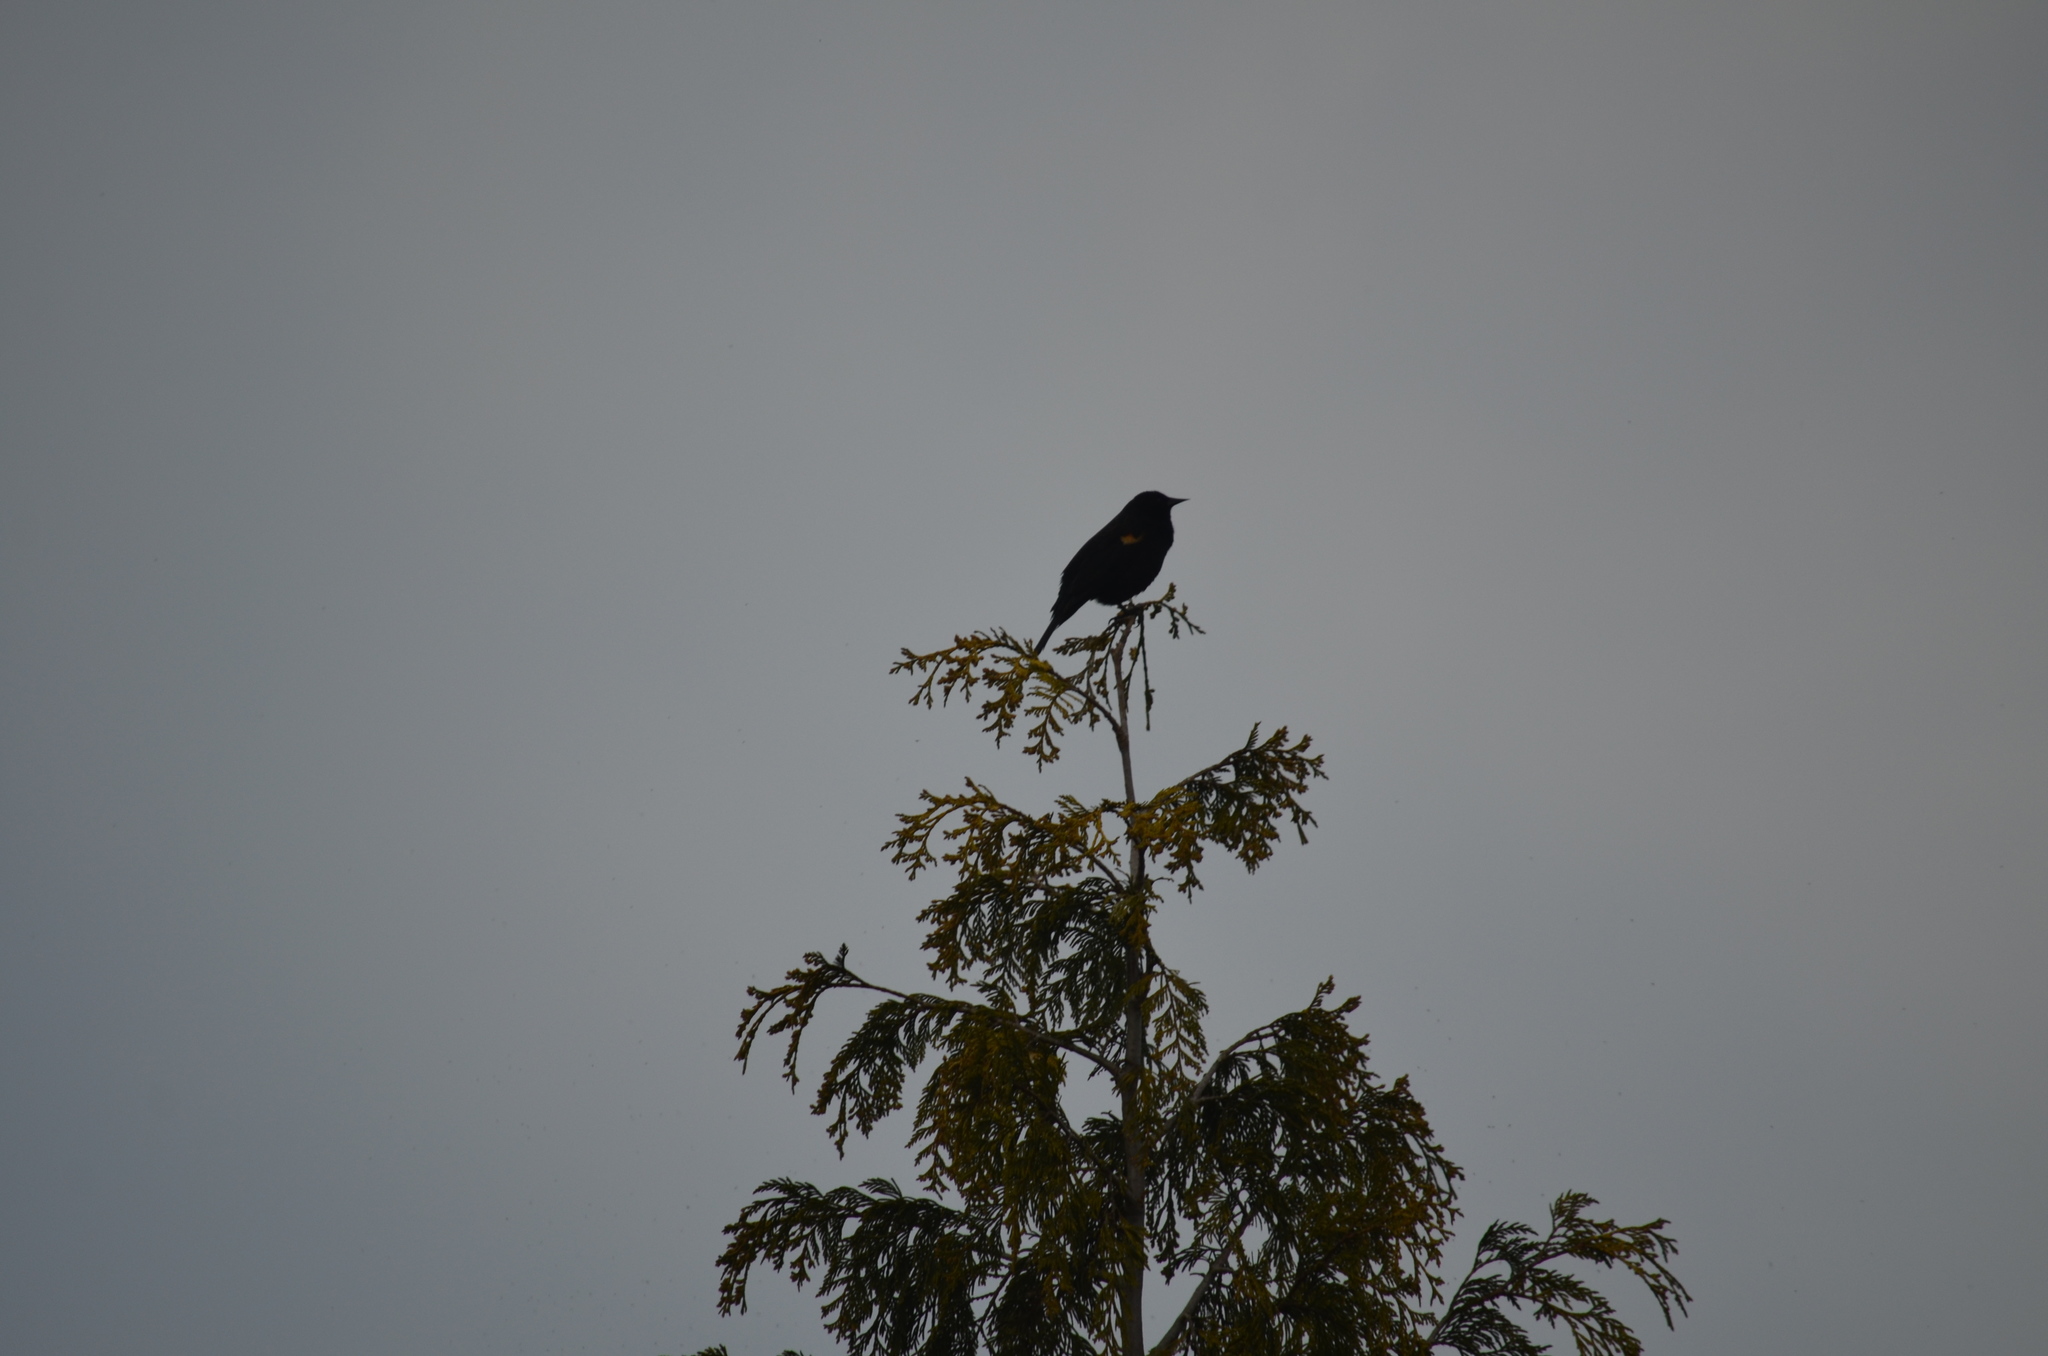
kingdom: Animalia
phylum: Chordata
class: Aves
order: Passeriformes
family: Icteridae
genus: Agelaius
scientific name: Agelaius phoeniceus
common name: Red-winged blackbird
